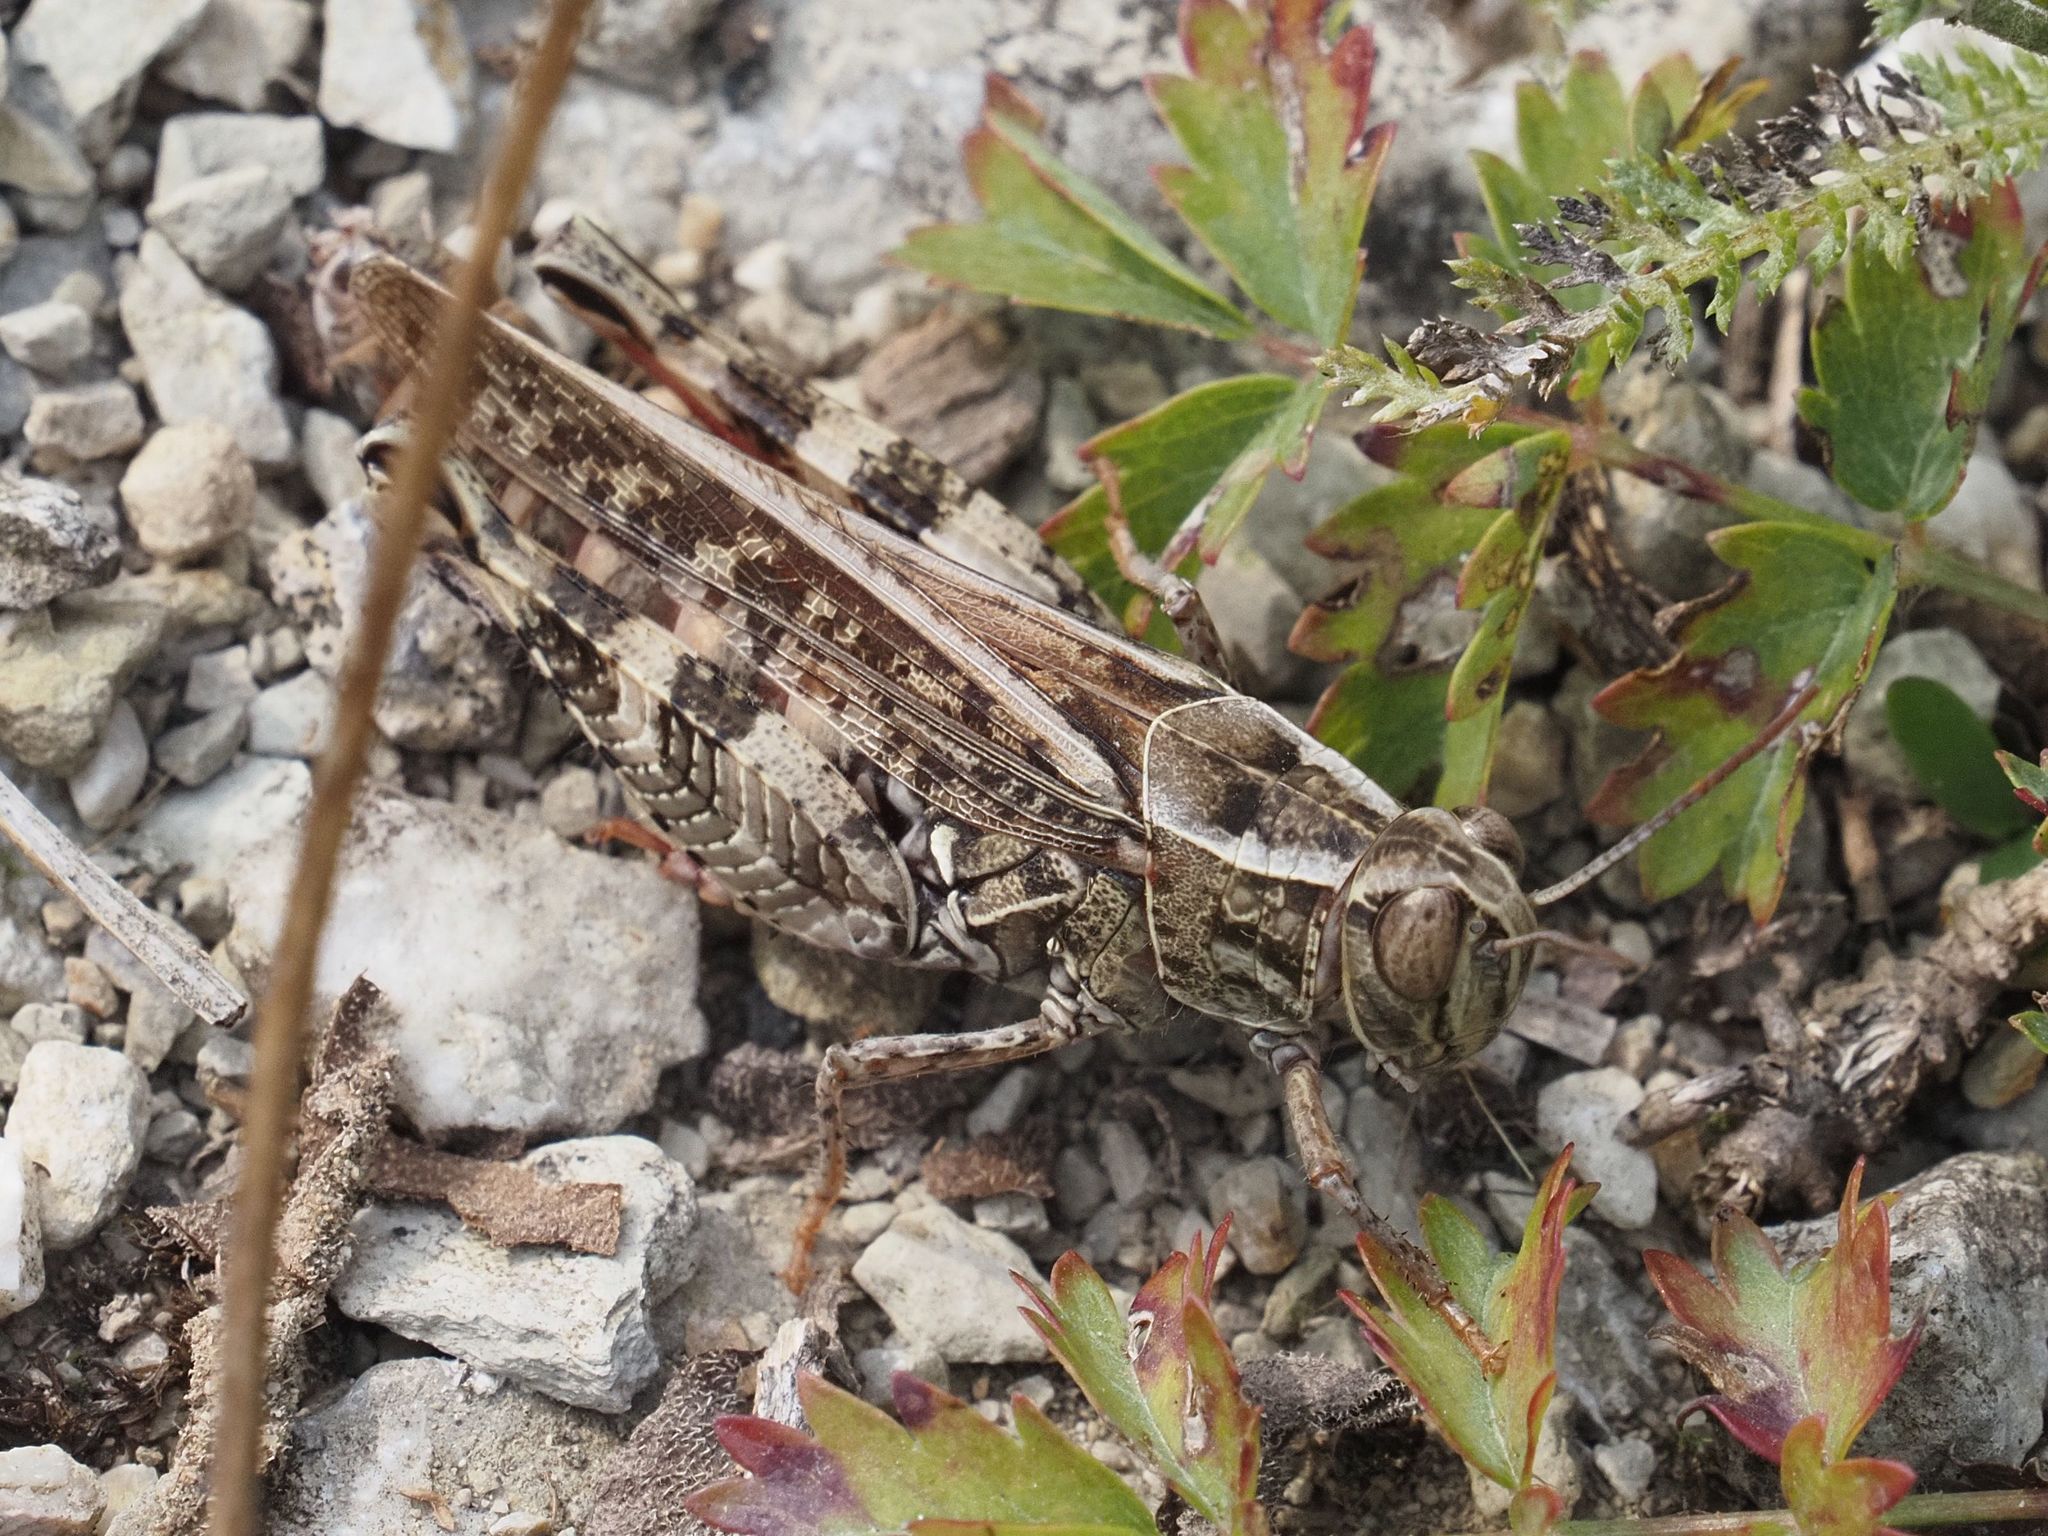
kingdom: Animalia
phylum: Arthropoda
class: Insecta
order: Orthoptera
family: Acrididae
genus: Calliptamus
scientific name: Calliptamus italicus
